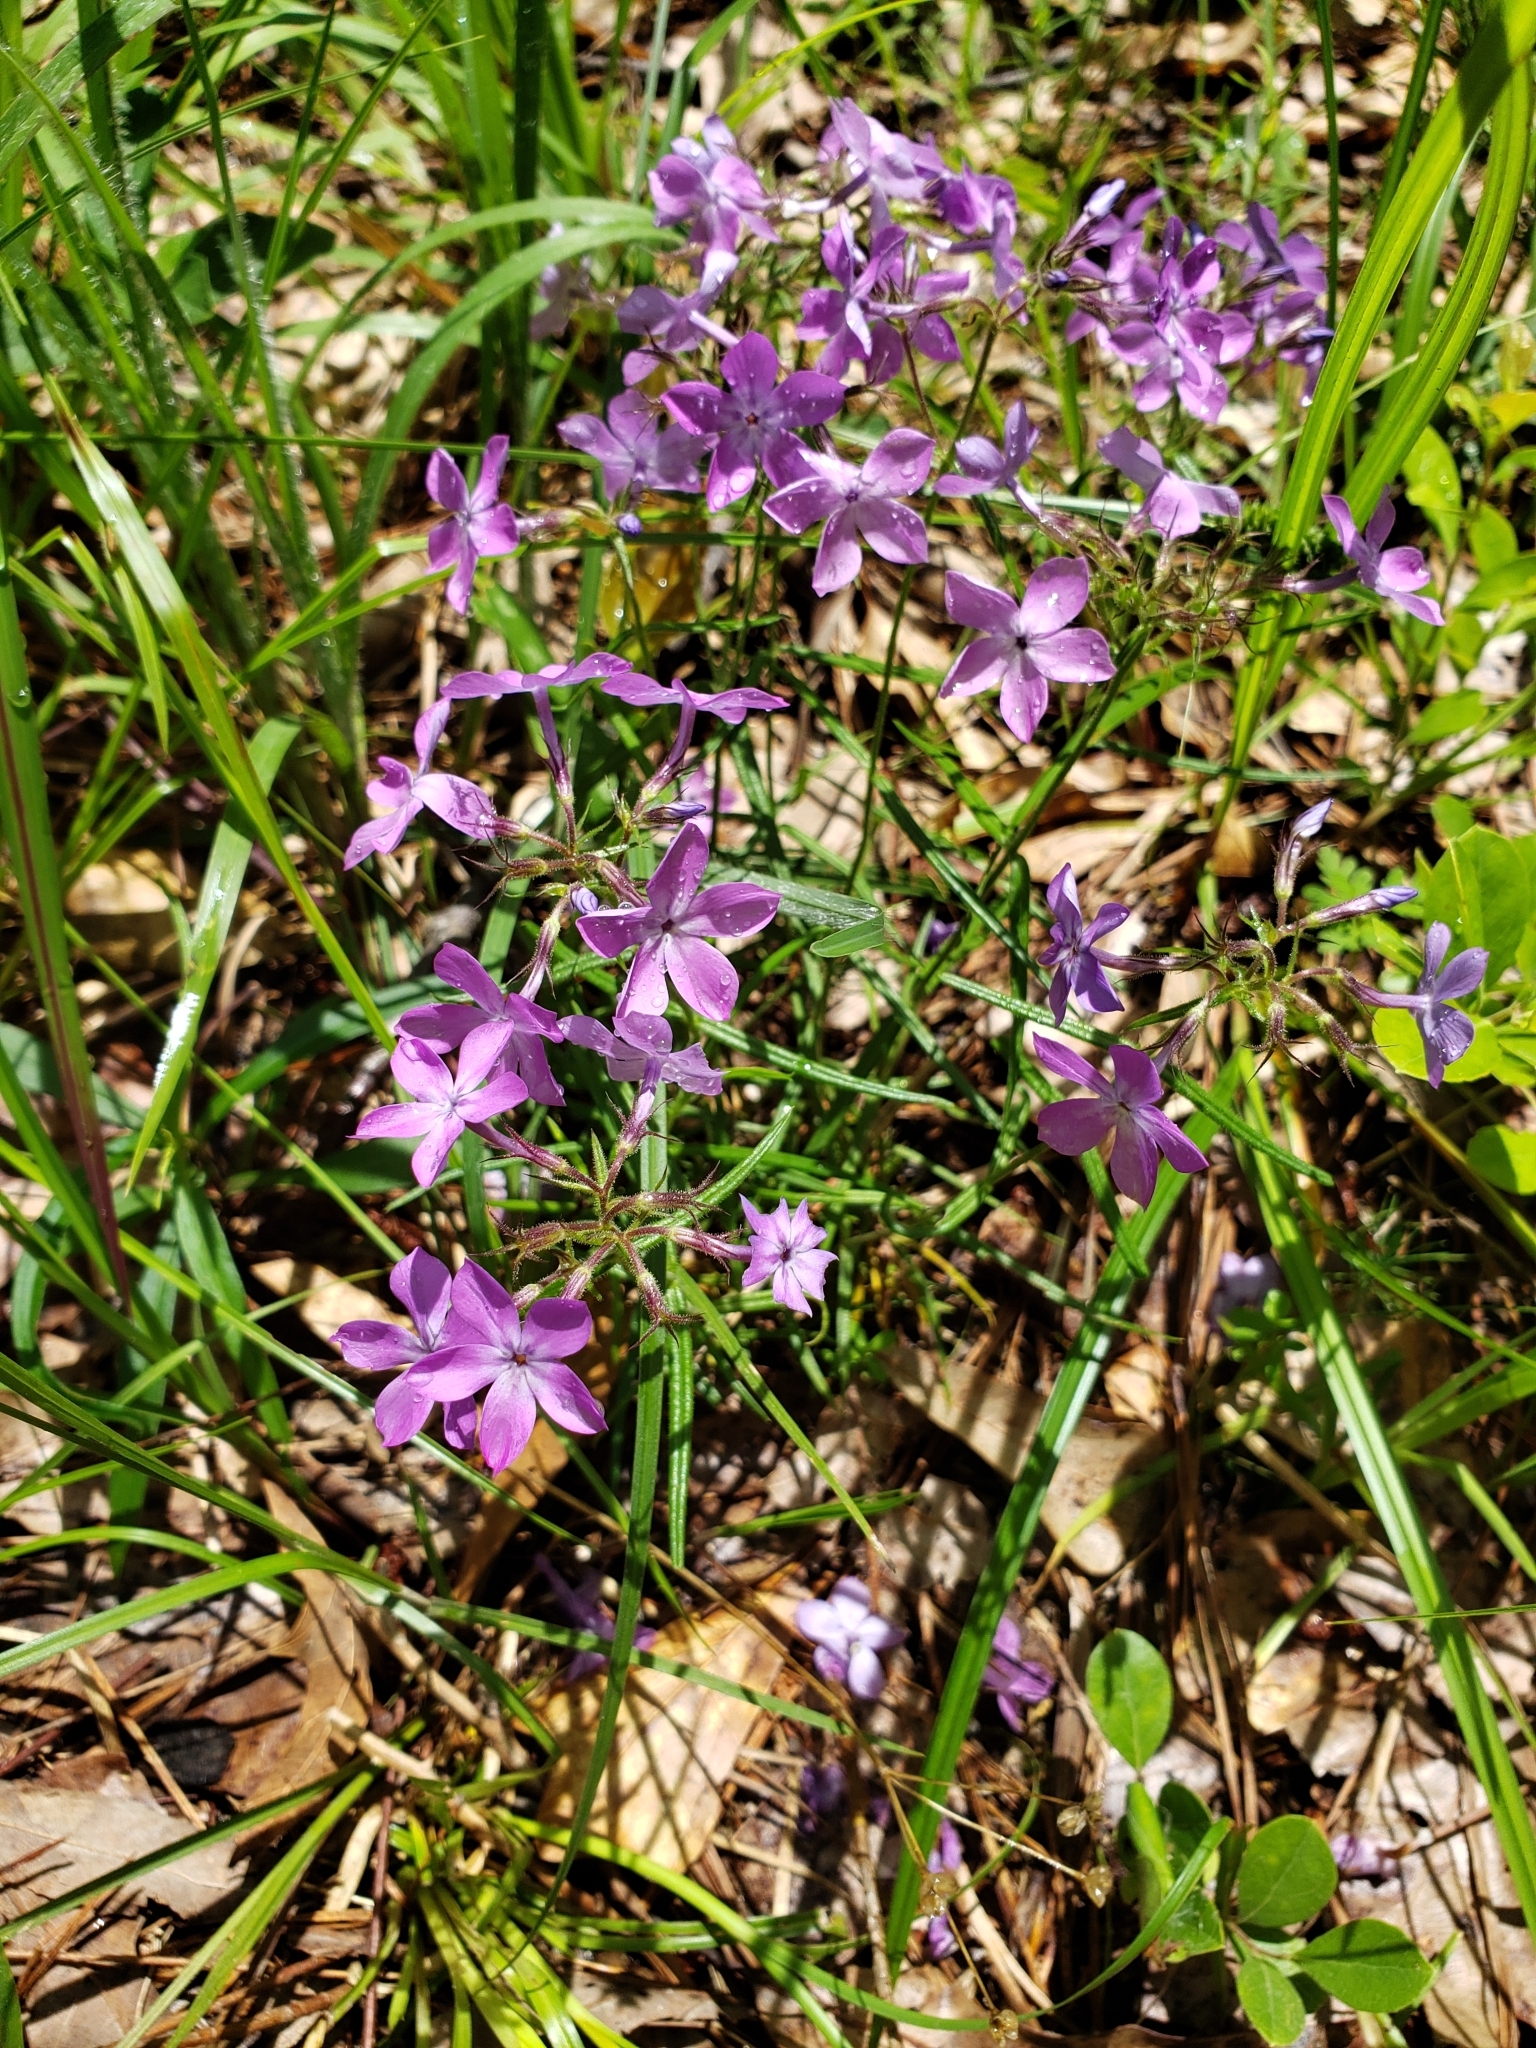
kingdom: Plantae
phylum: Tracheophyta
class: Magnoliopsida
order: Ericales
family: Polemoniaceae
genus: Phlox
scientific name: Phlox pilosa
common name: Prairie phlox
